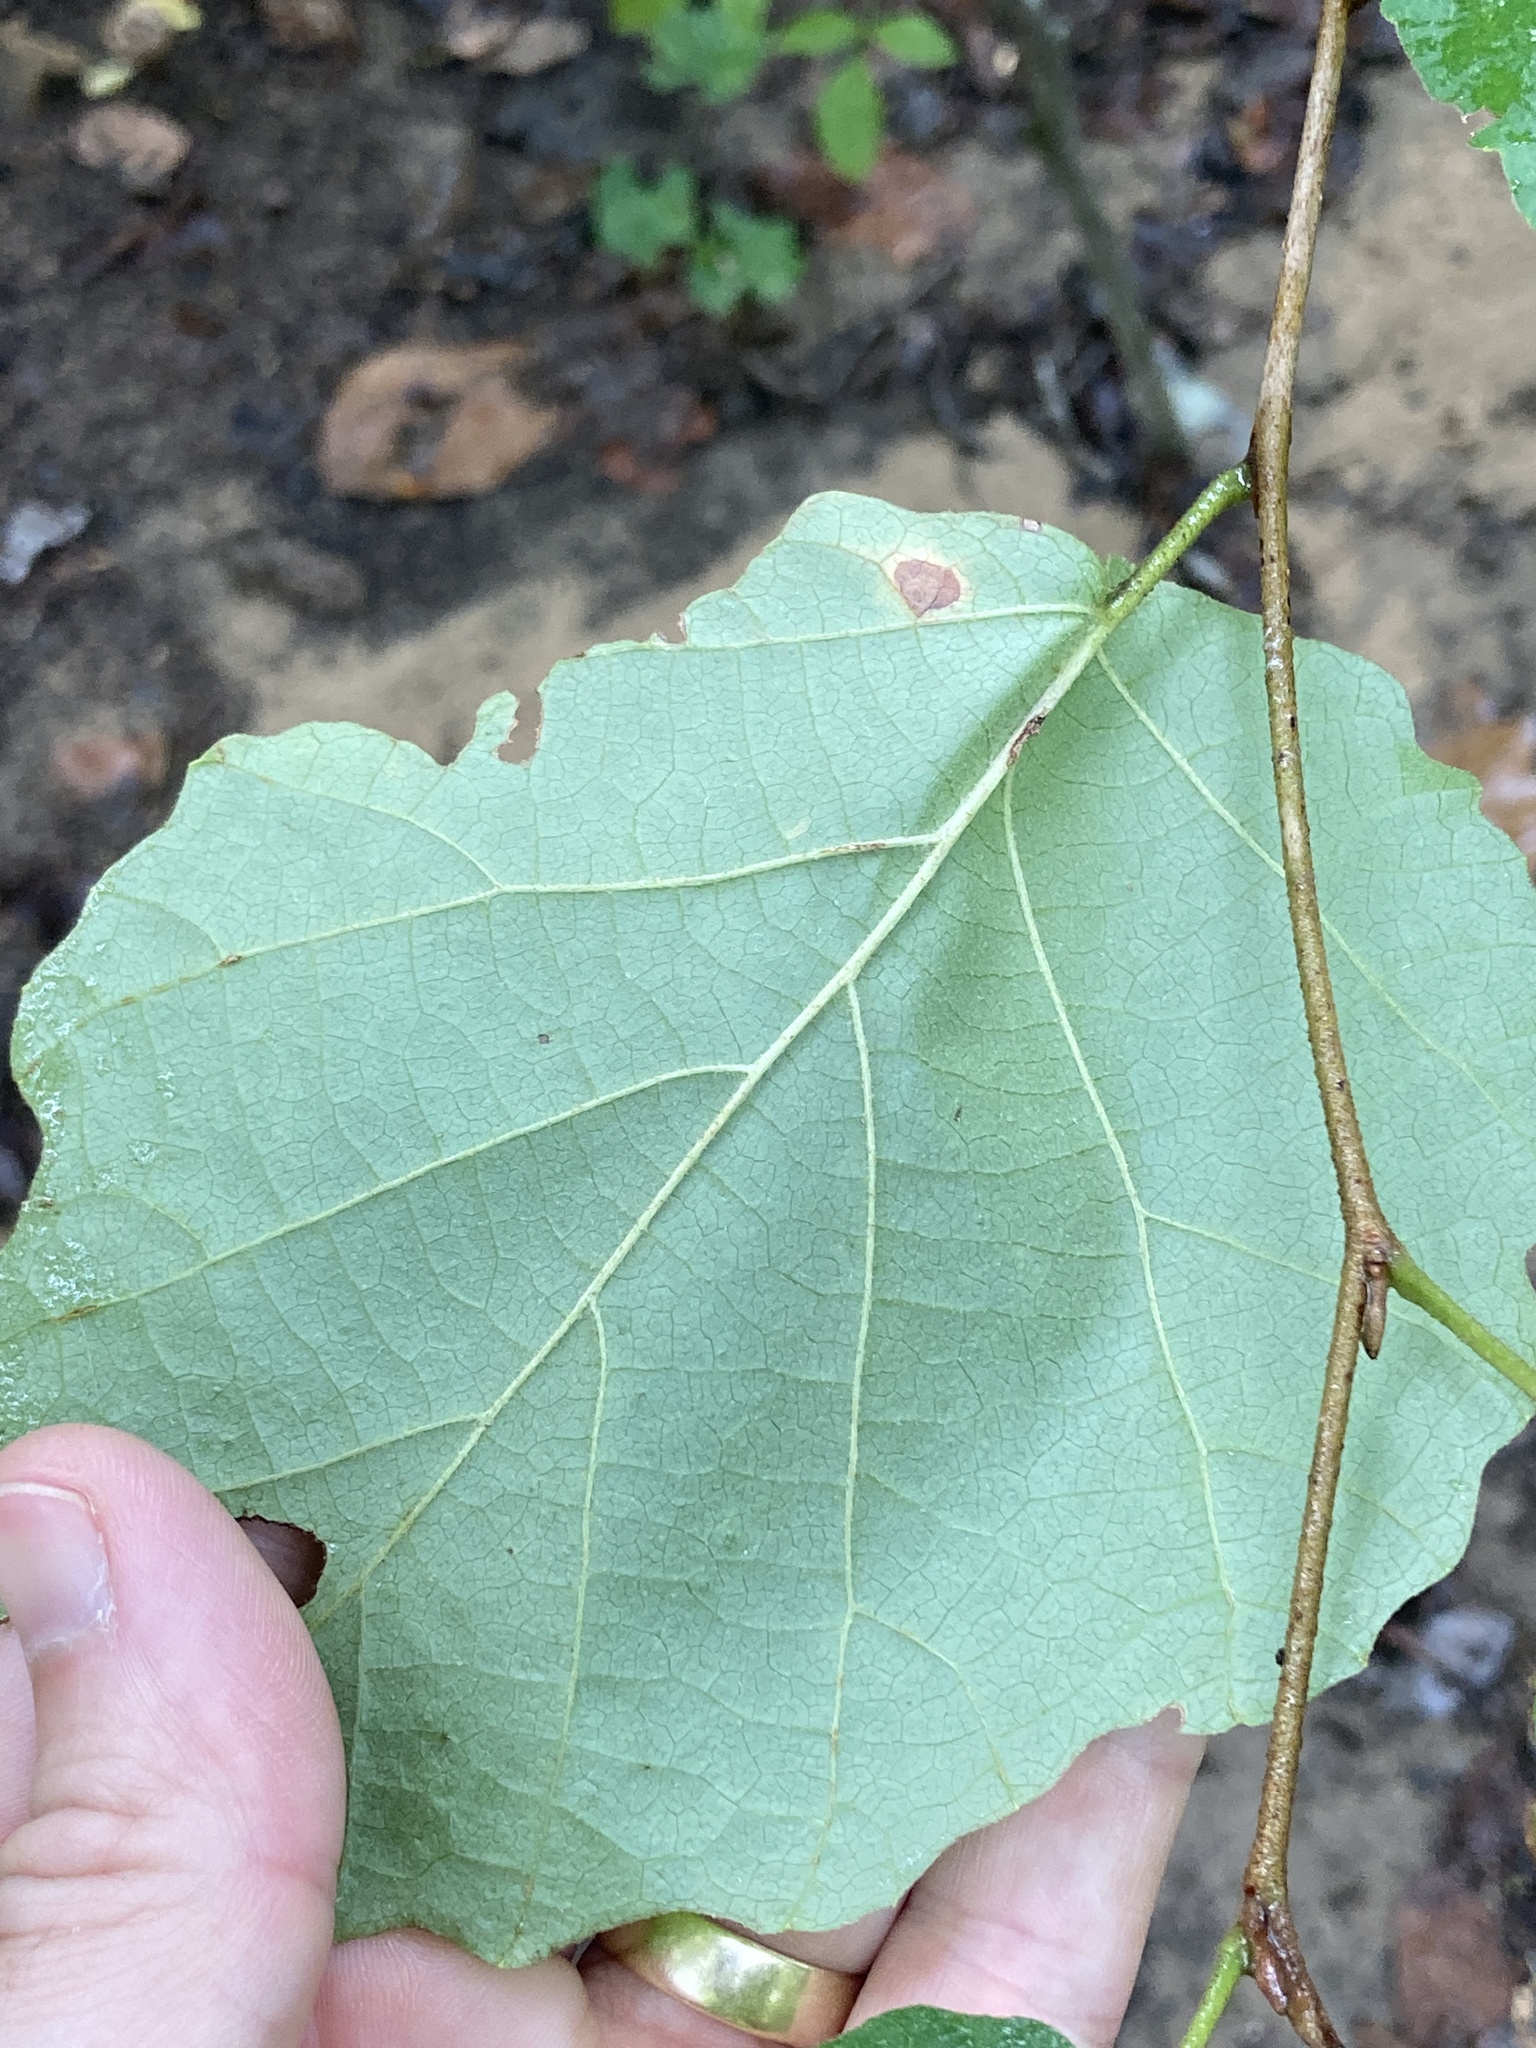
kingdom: Plantae
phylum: Tracheophyta
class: Magnoliopsida
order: Saxifragales
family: Hamamelidaceae
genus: Hamamelis
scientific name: Hamamelis virginiana
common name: Witch-hazel
